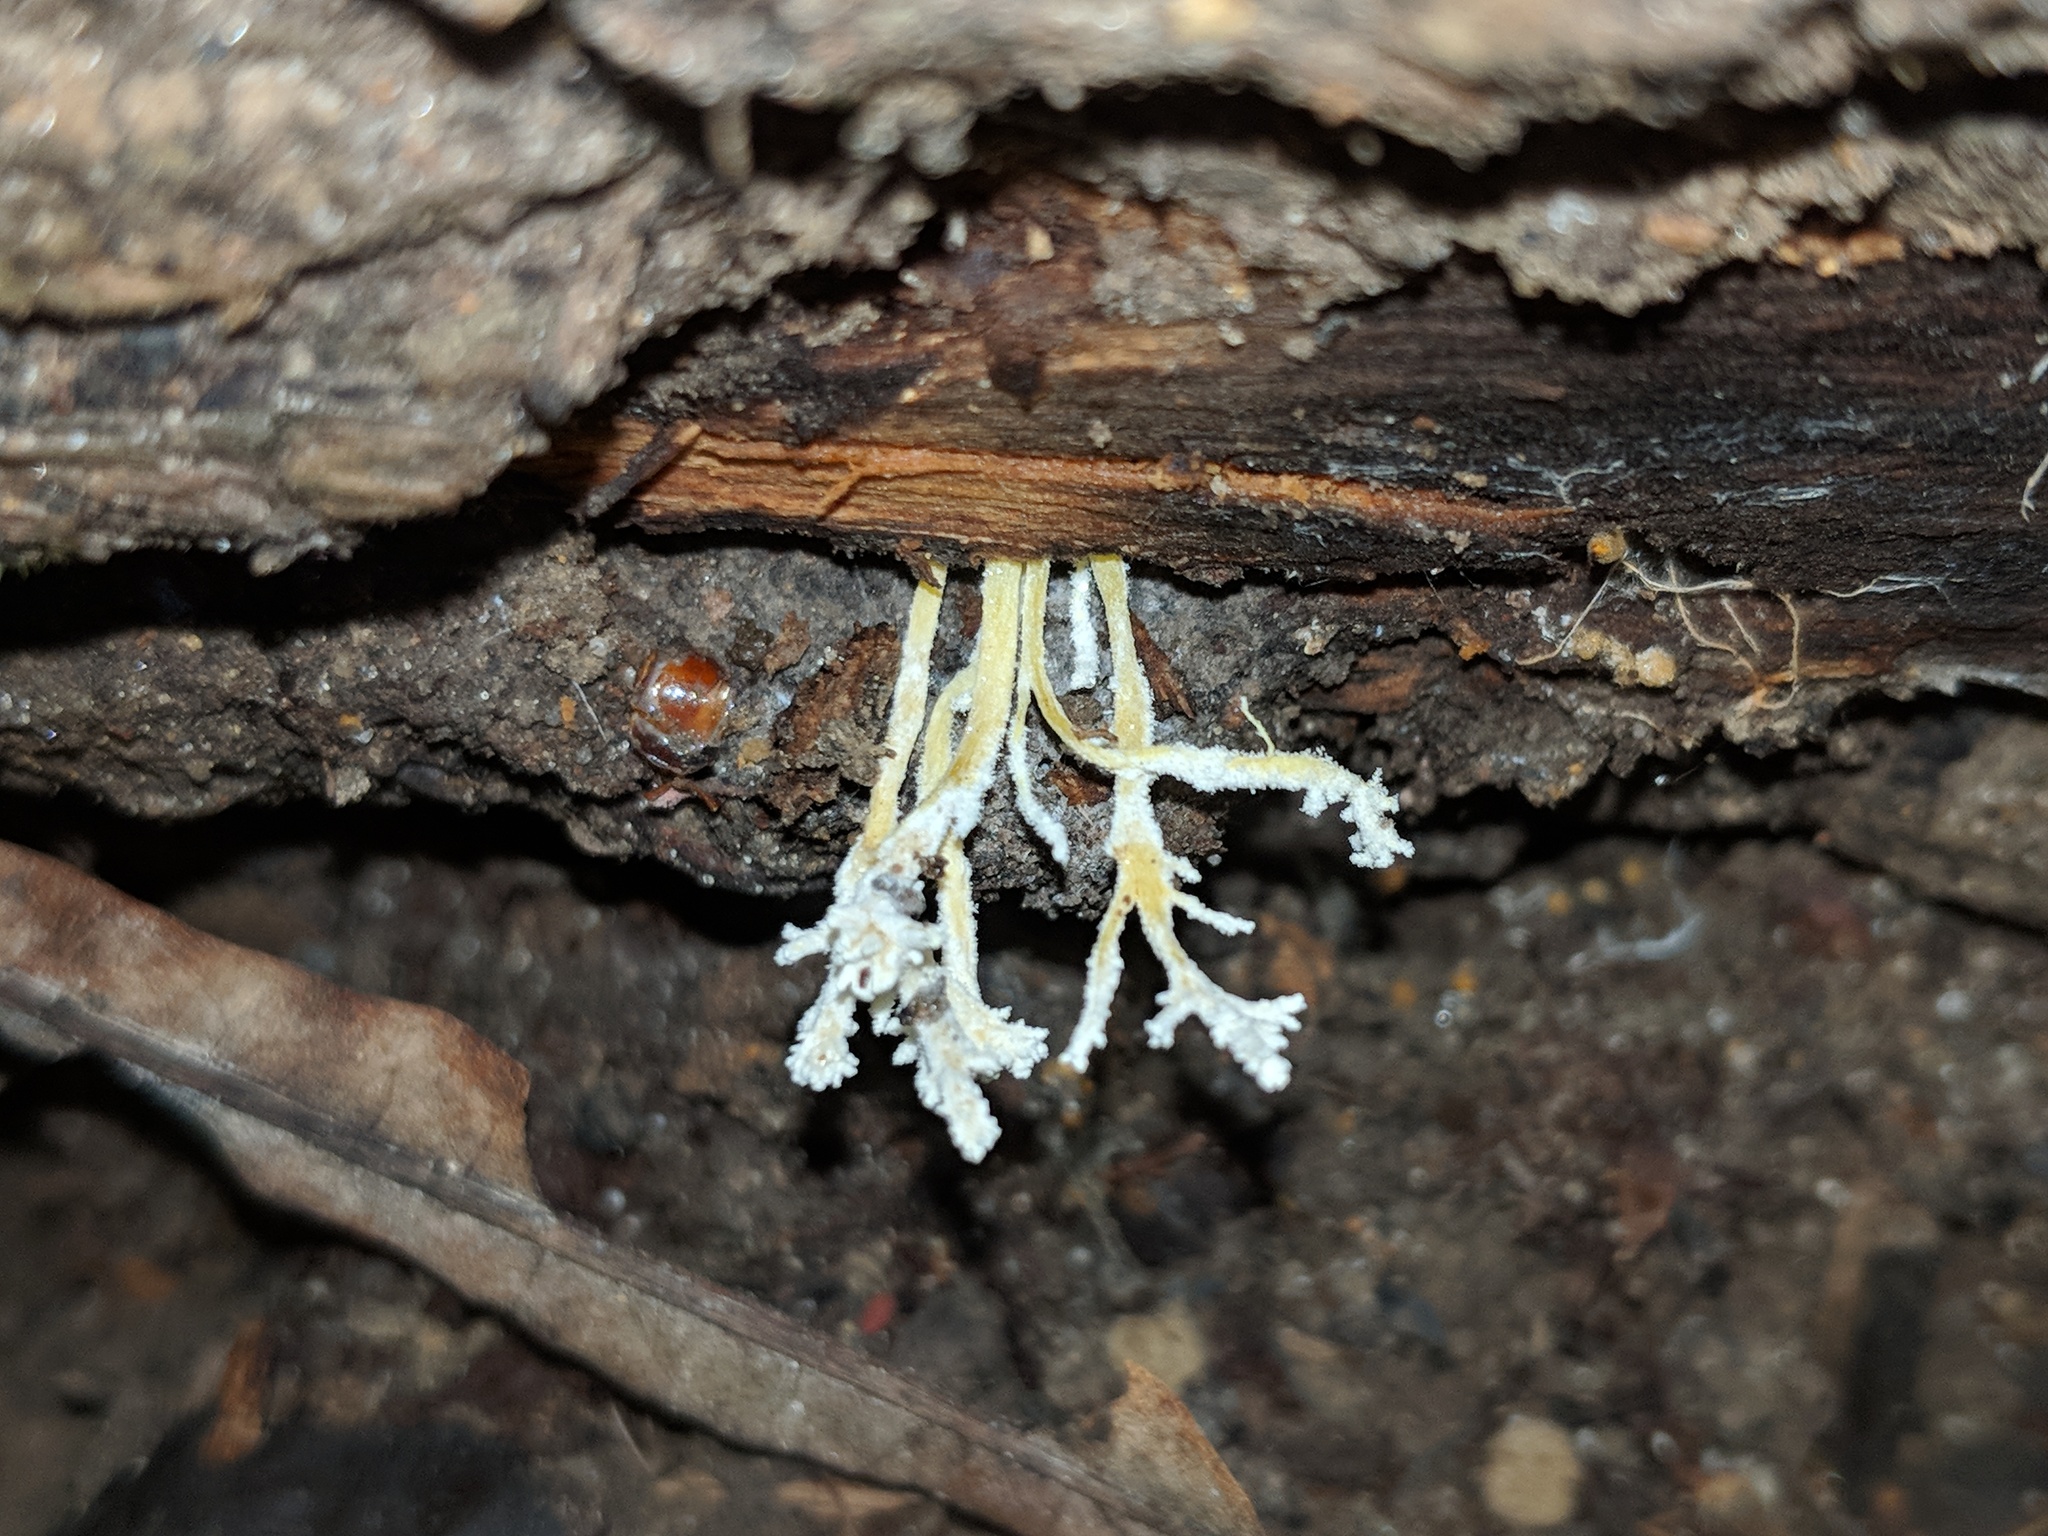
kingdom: Fungi
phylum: Ascomycota
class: Sordariomycetes
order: Hypocreales
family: Cordycipitaceae
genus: Cordyceps
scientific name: Cordyceps tenuipes
